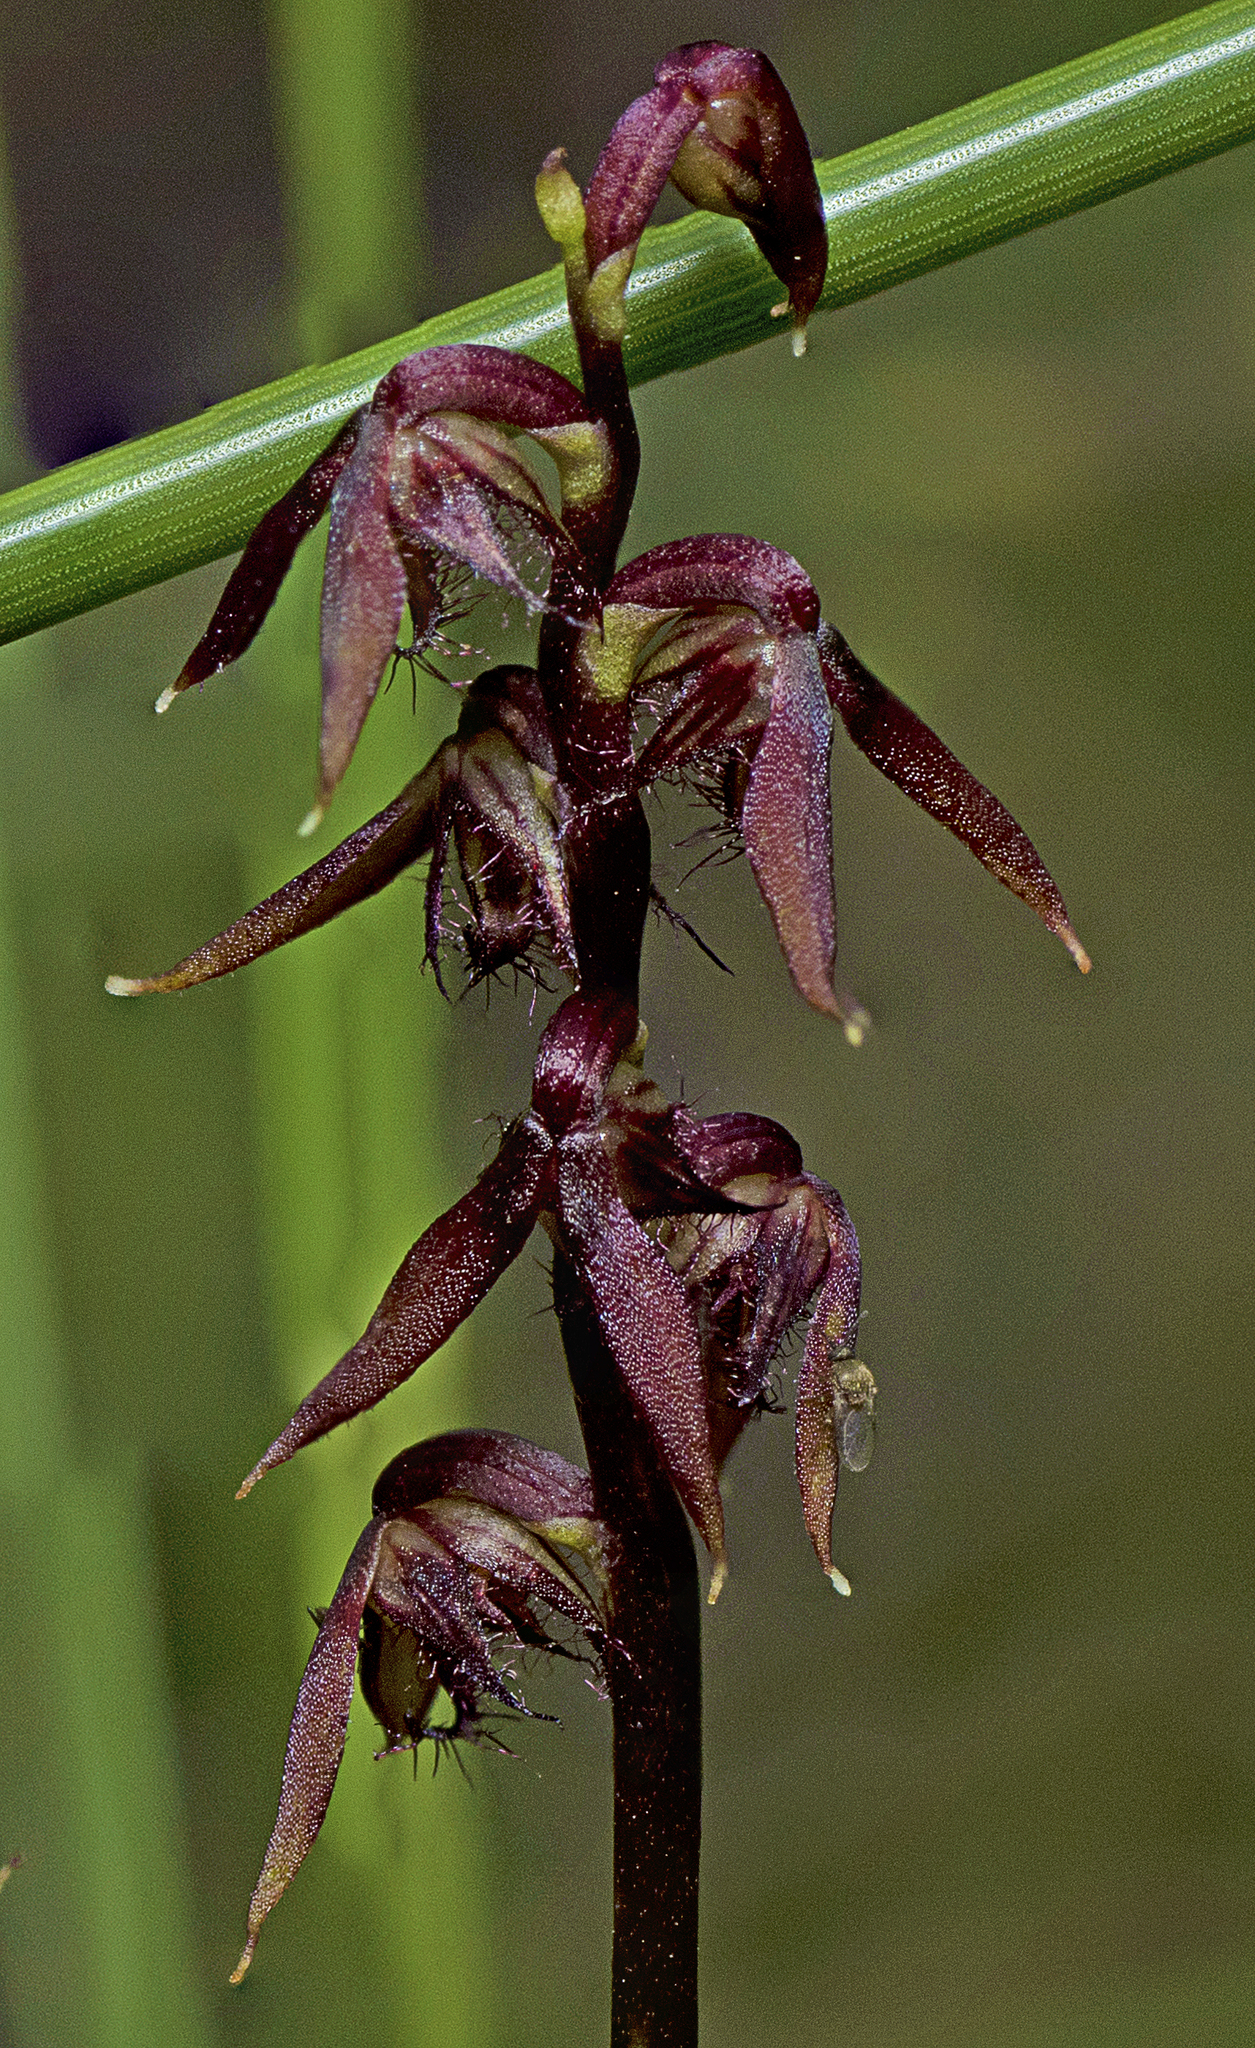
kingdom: Plantae
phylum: Tracheophyta
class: Liliopsida
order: Asparagales
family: Orchidaceae
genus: Genoplesium
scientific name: Genoplesium acuminatum
